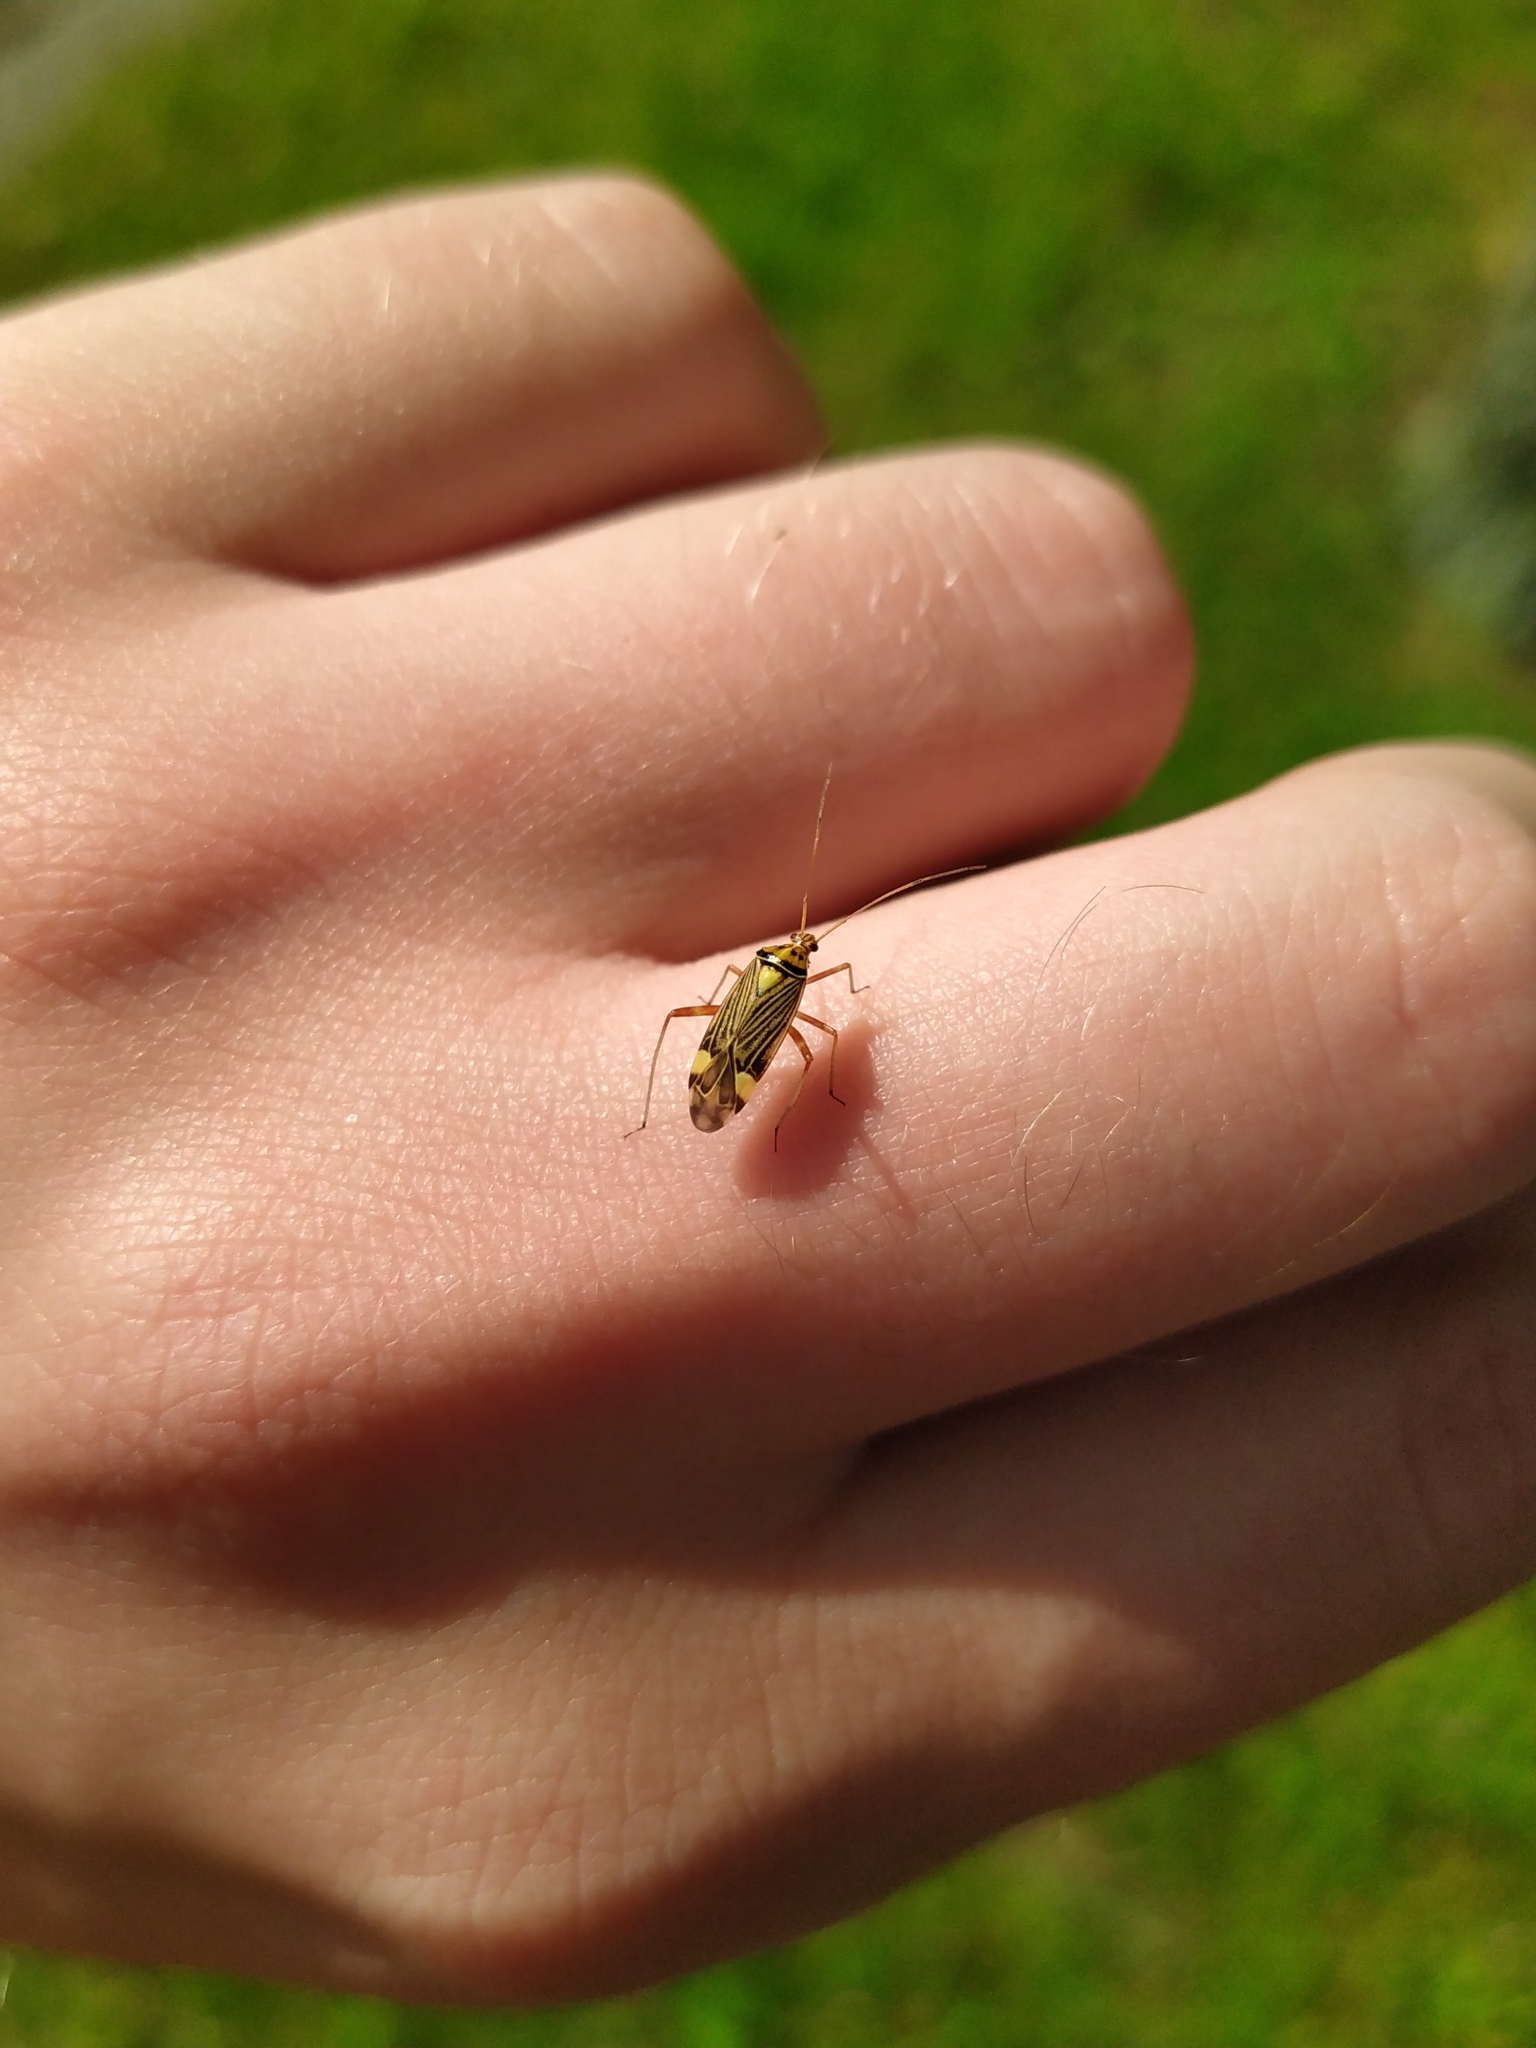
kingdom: Animalia
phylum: Arthropoda
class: Insecta
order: Hemiptera
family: Miridae
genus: Rhabdomiris
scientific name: Rhabdomiris striatellus
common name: Plant bug
